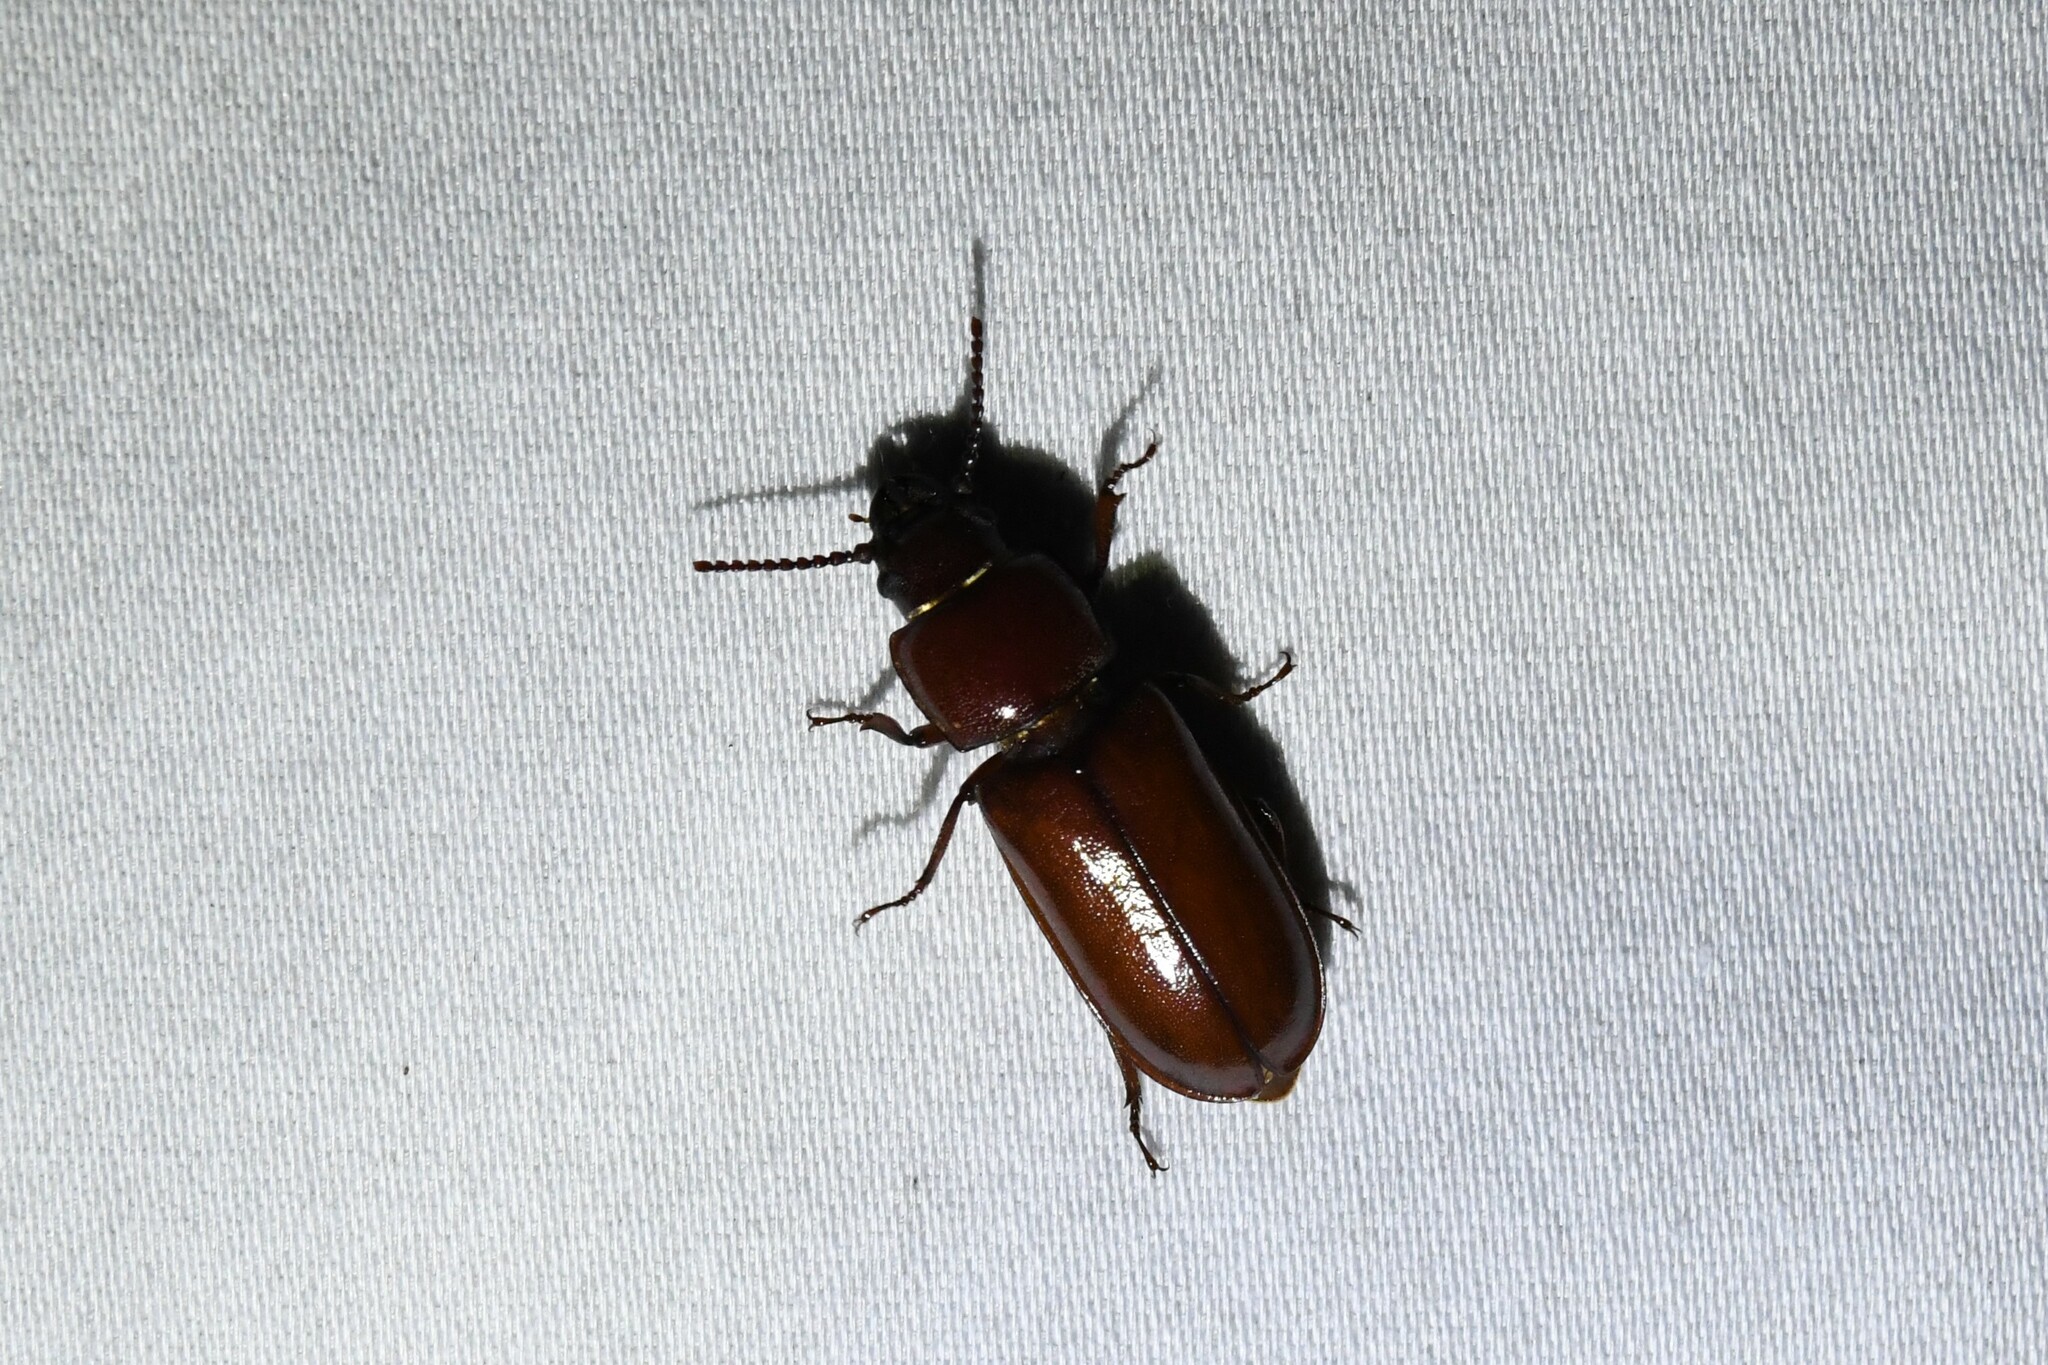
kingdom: Animalia
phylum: Arthropoda
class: Insecta
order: Coleoptera
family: Cerambycidae
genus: Neandra
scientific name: Neandra brunnea
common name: Pole borer
